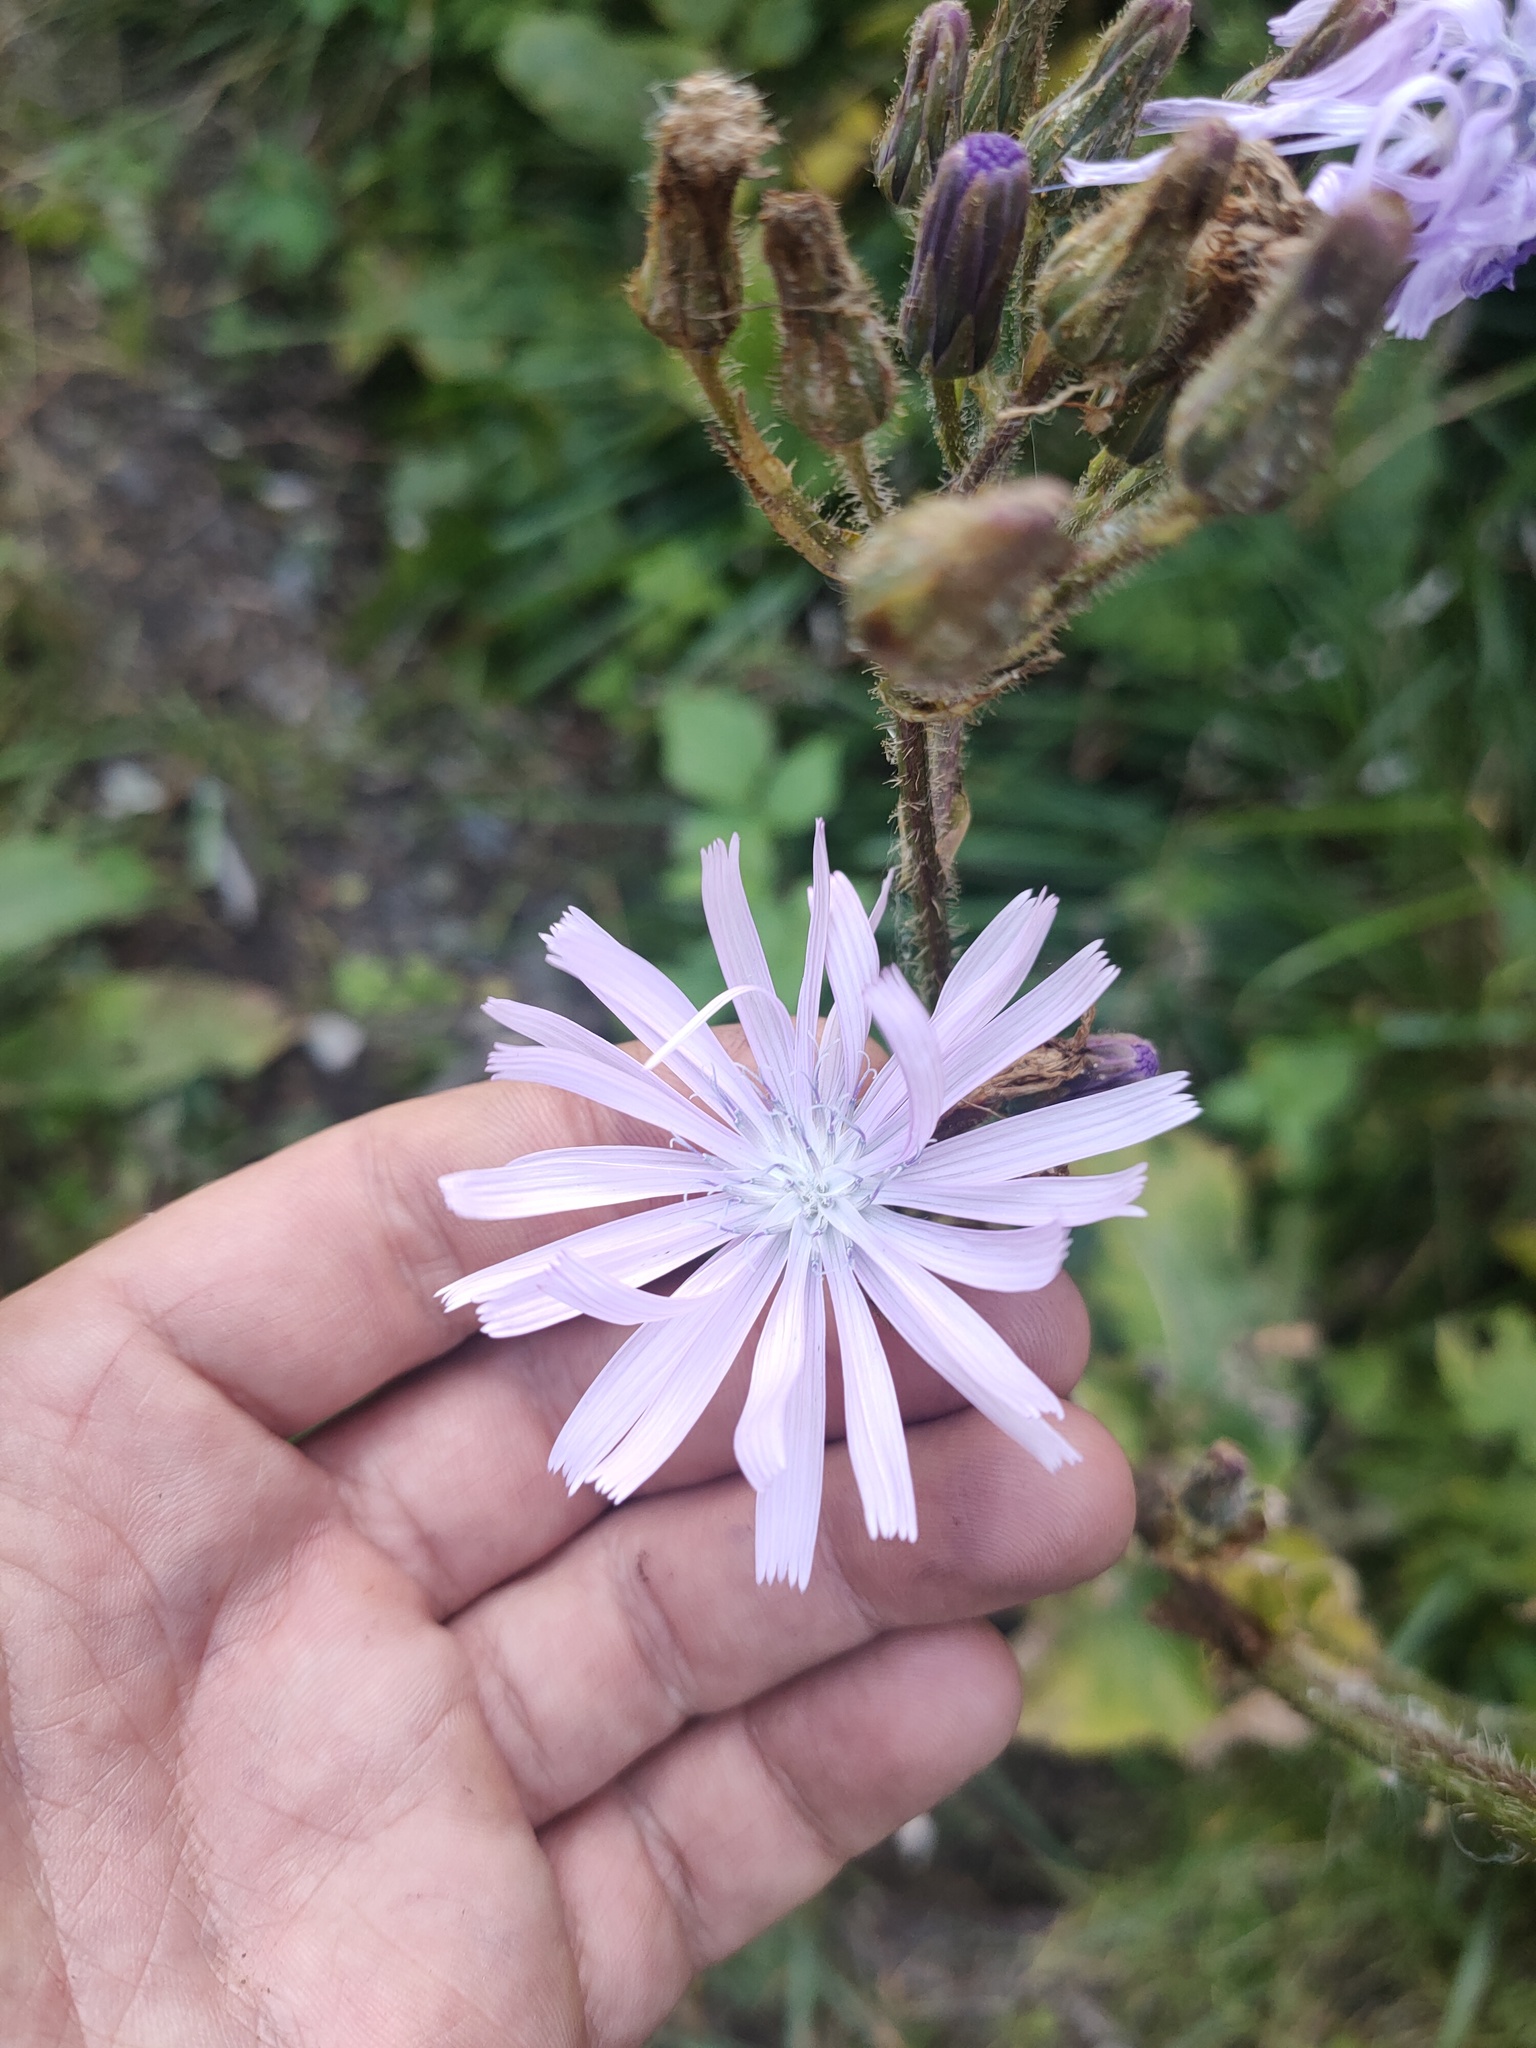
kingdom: Plantae
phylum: Tracheophyta
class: Magnoliopsida
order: Asterales
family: Asteraceae
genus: Lactuca
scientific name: Lactuca macrophylla
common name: Common blue-sow-thistle
